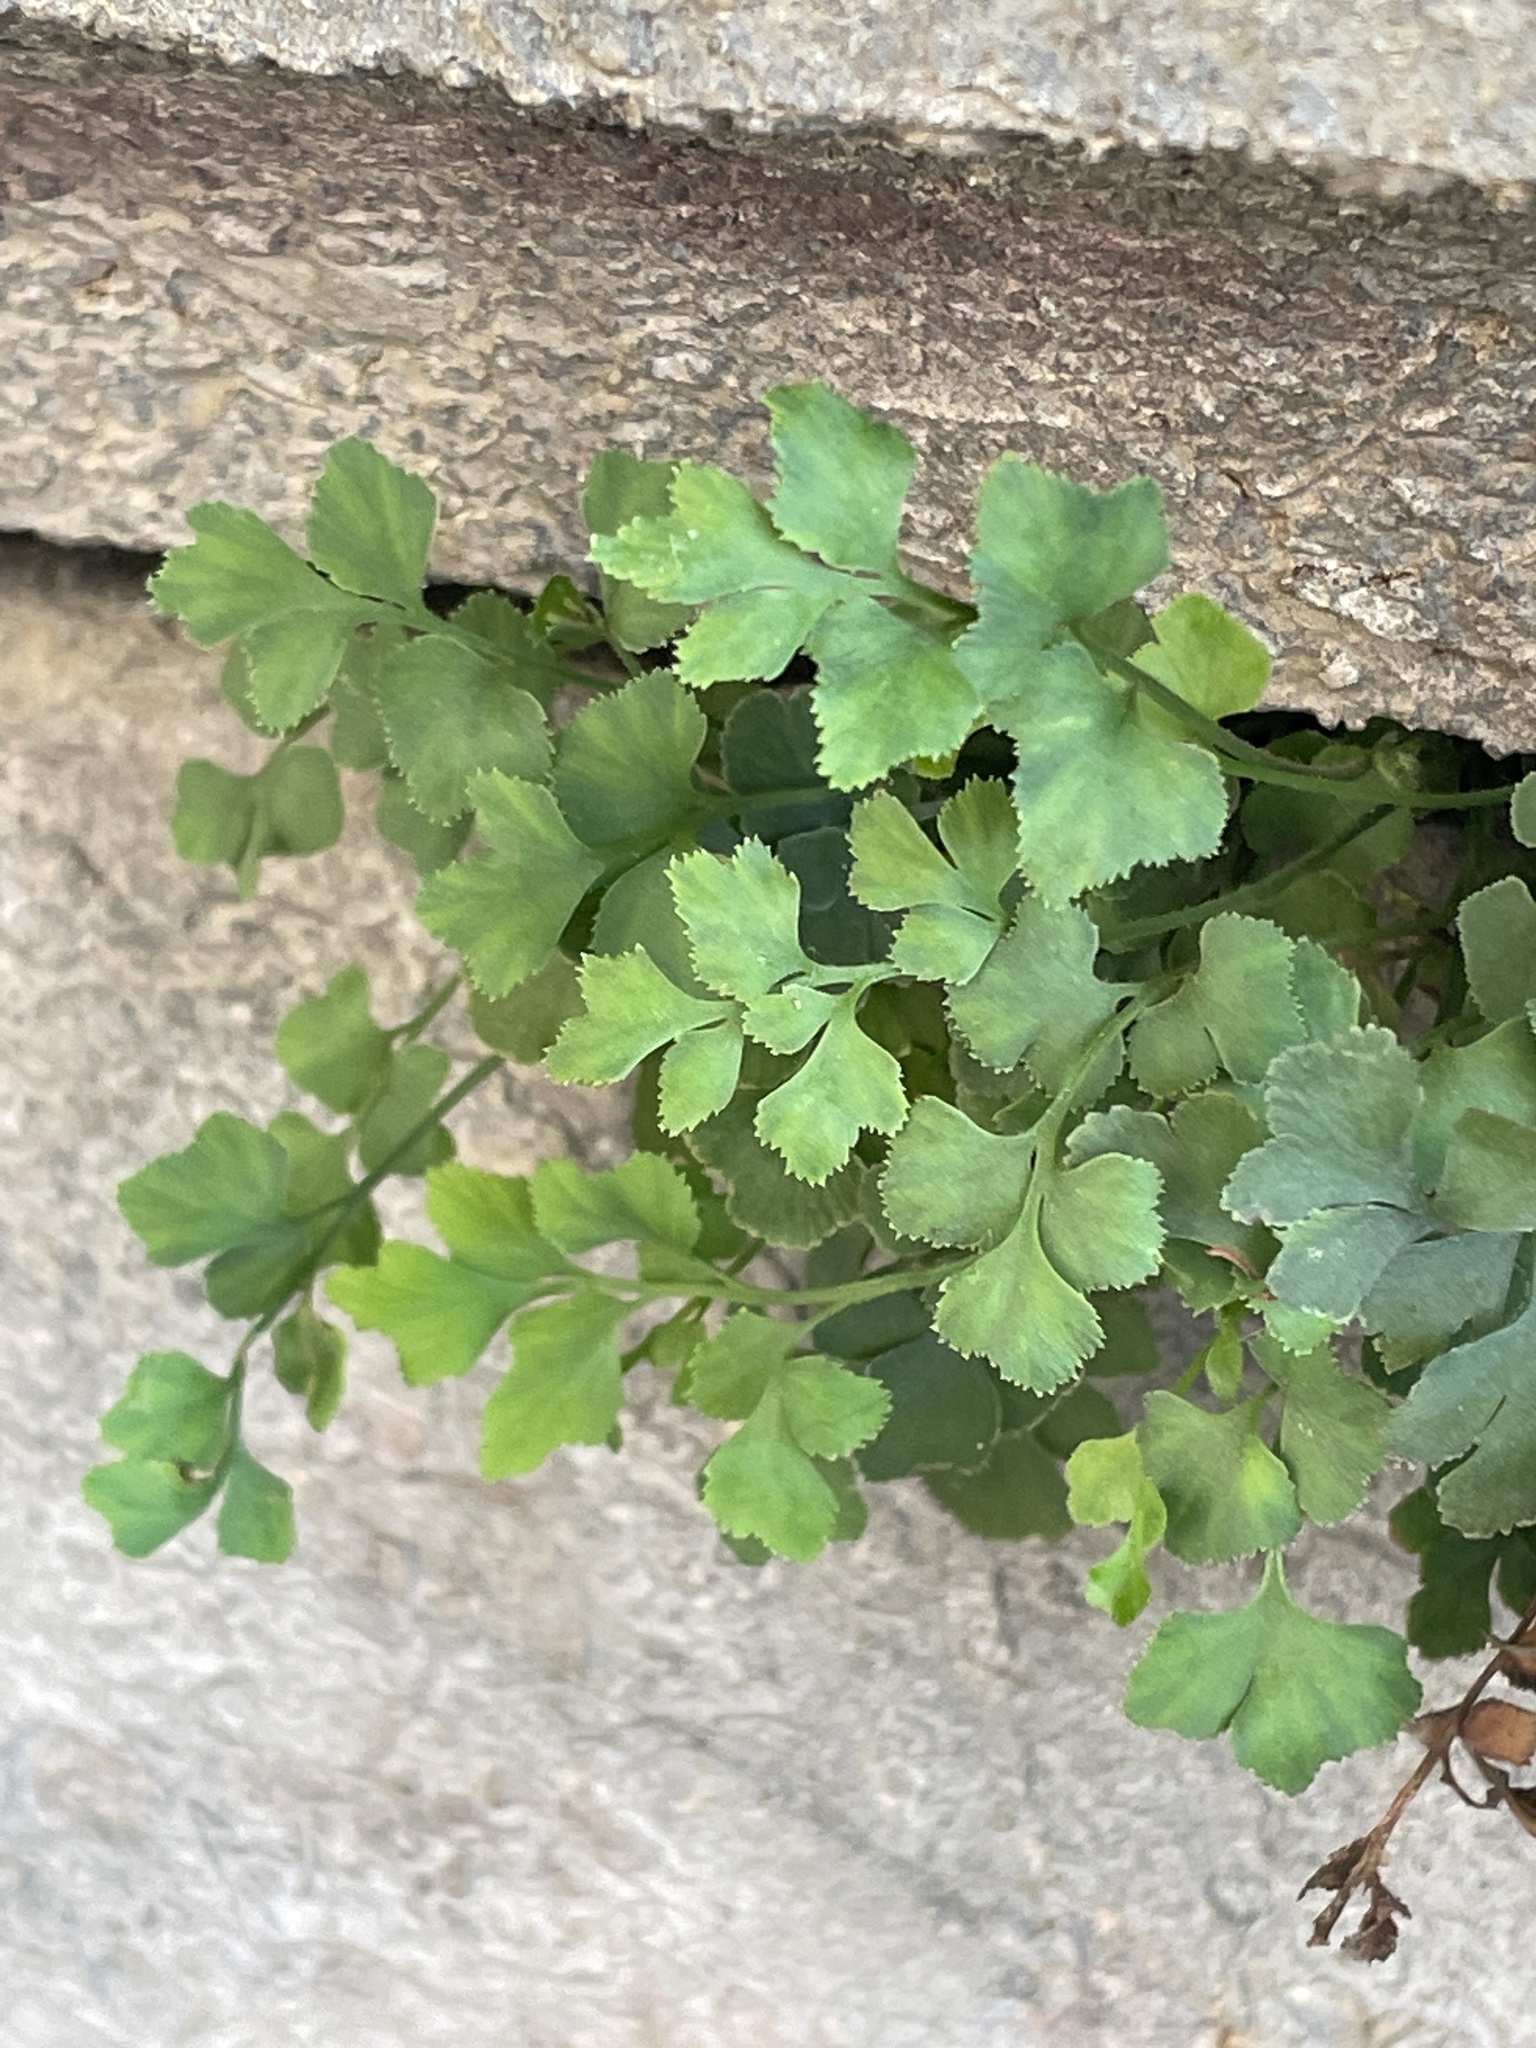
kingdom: Plantae
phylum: Tracheophyta
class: Polypodiopsida
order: Polypodiales
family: Aspleniaceae
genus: Asplenium
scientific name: Asplenium ruta-muraria
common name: Wall-rue
